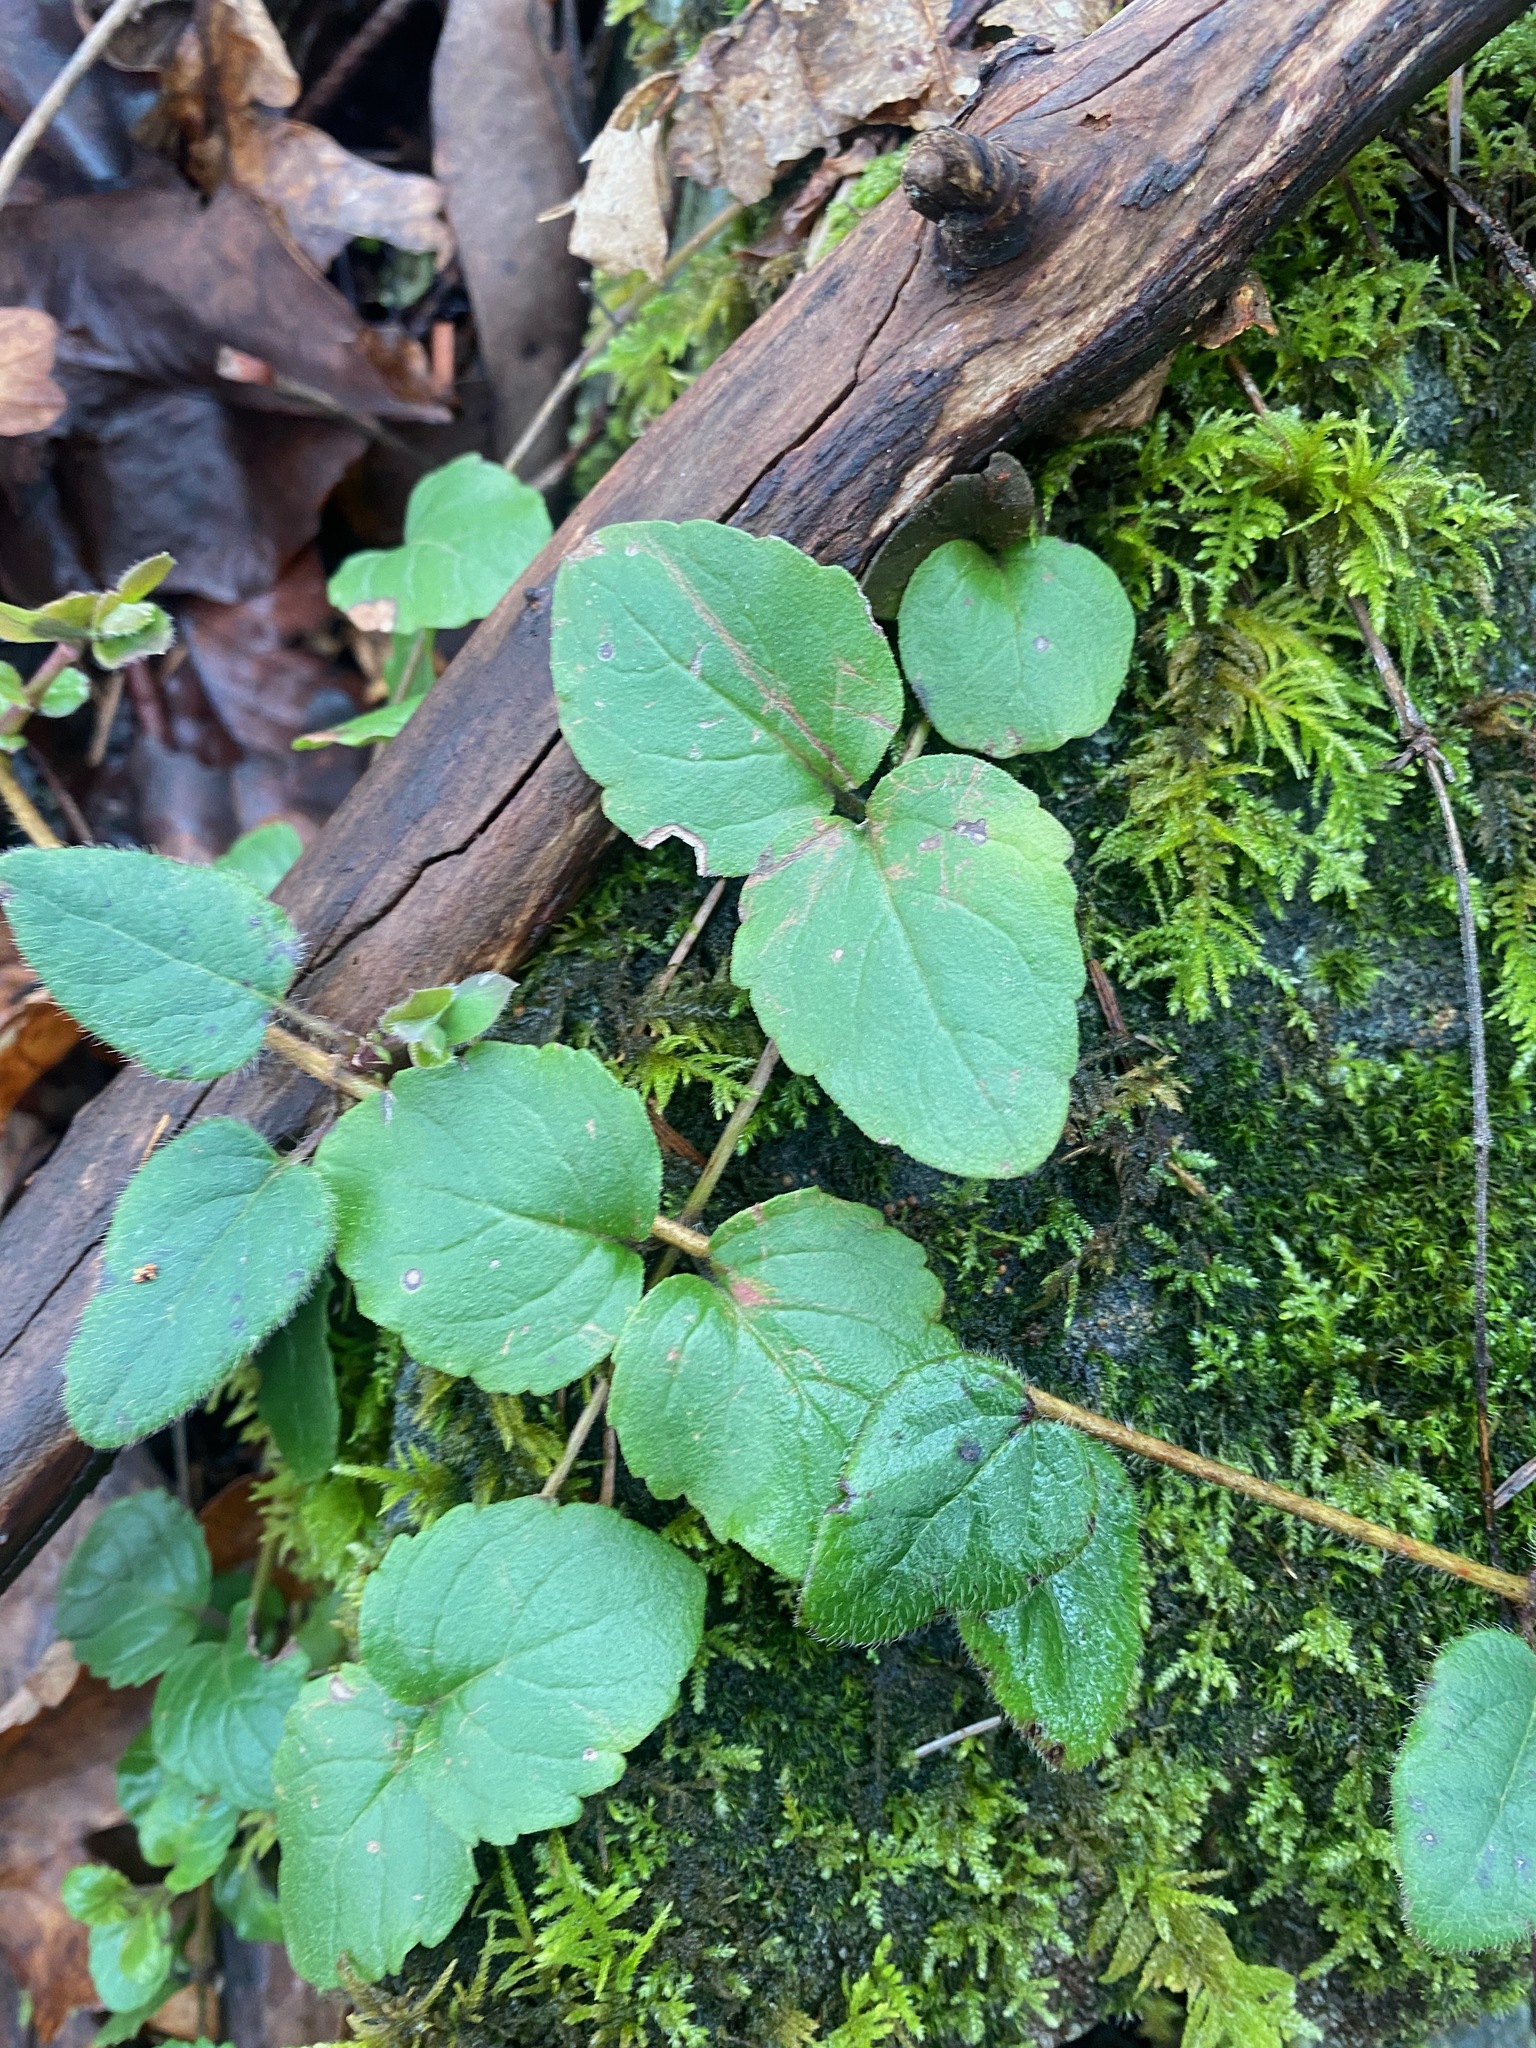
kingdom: Plantae
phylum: Tracheophyta
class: Magnoliopsida
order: Lamiales
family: Lamiaceae
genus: Micromeria
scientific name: Micromeria douglasii
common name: Yerba buena
